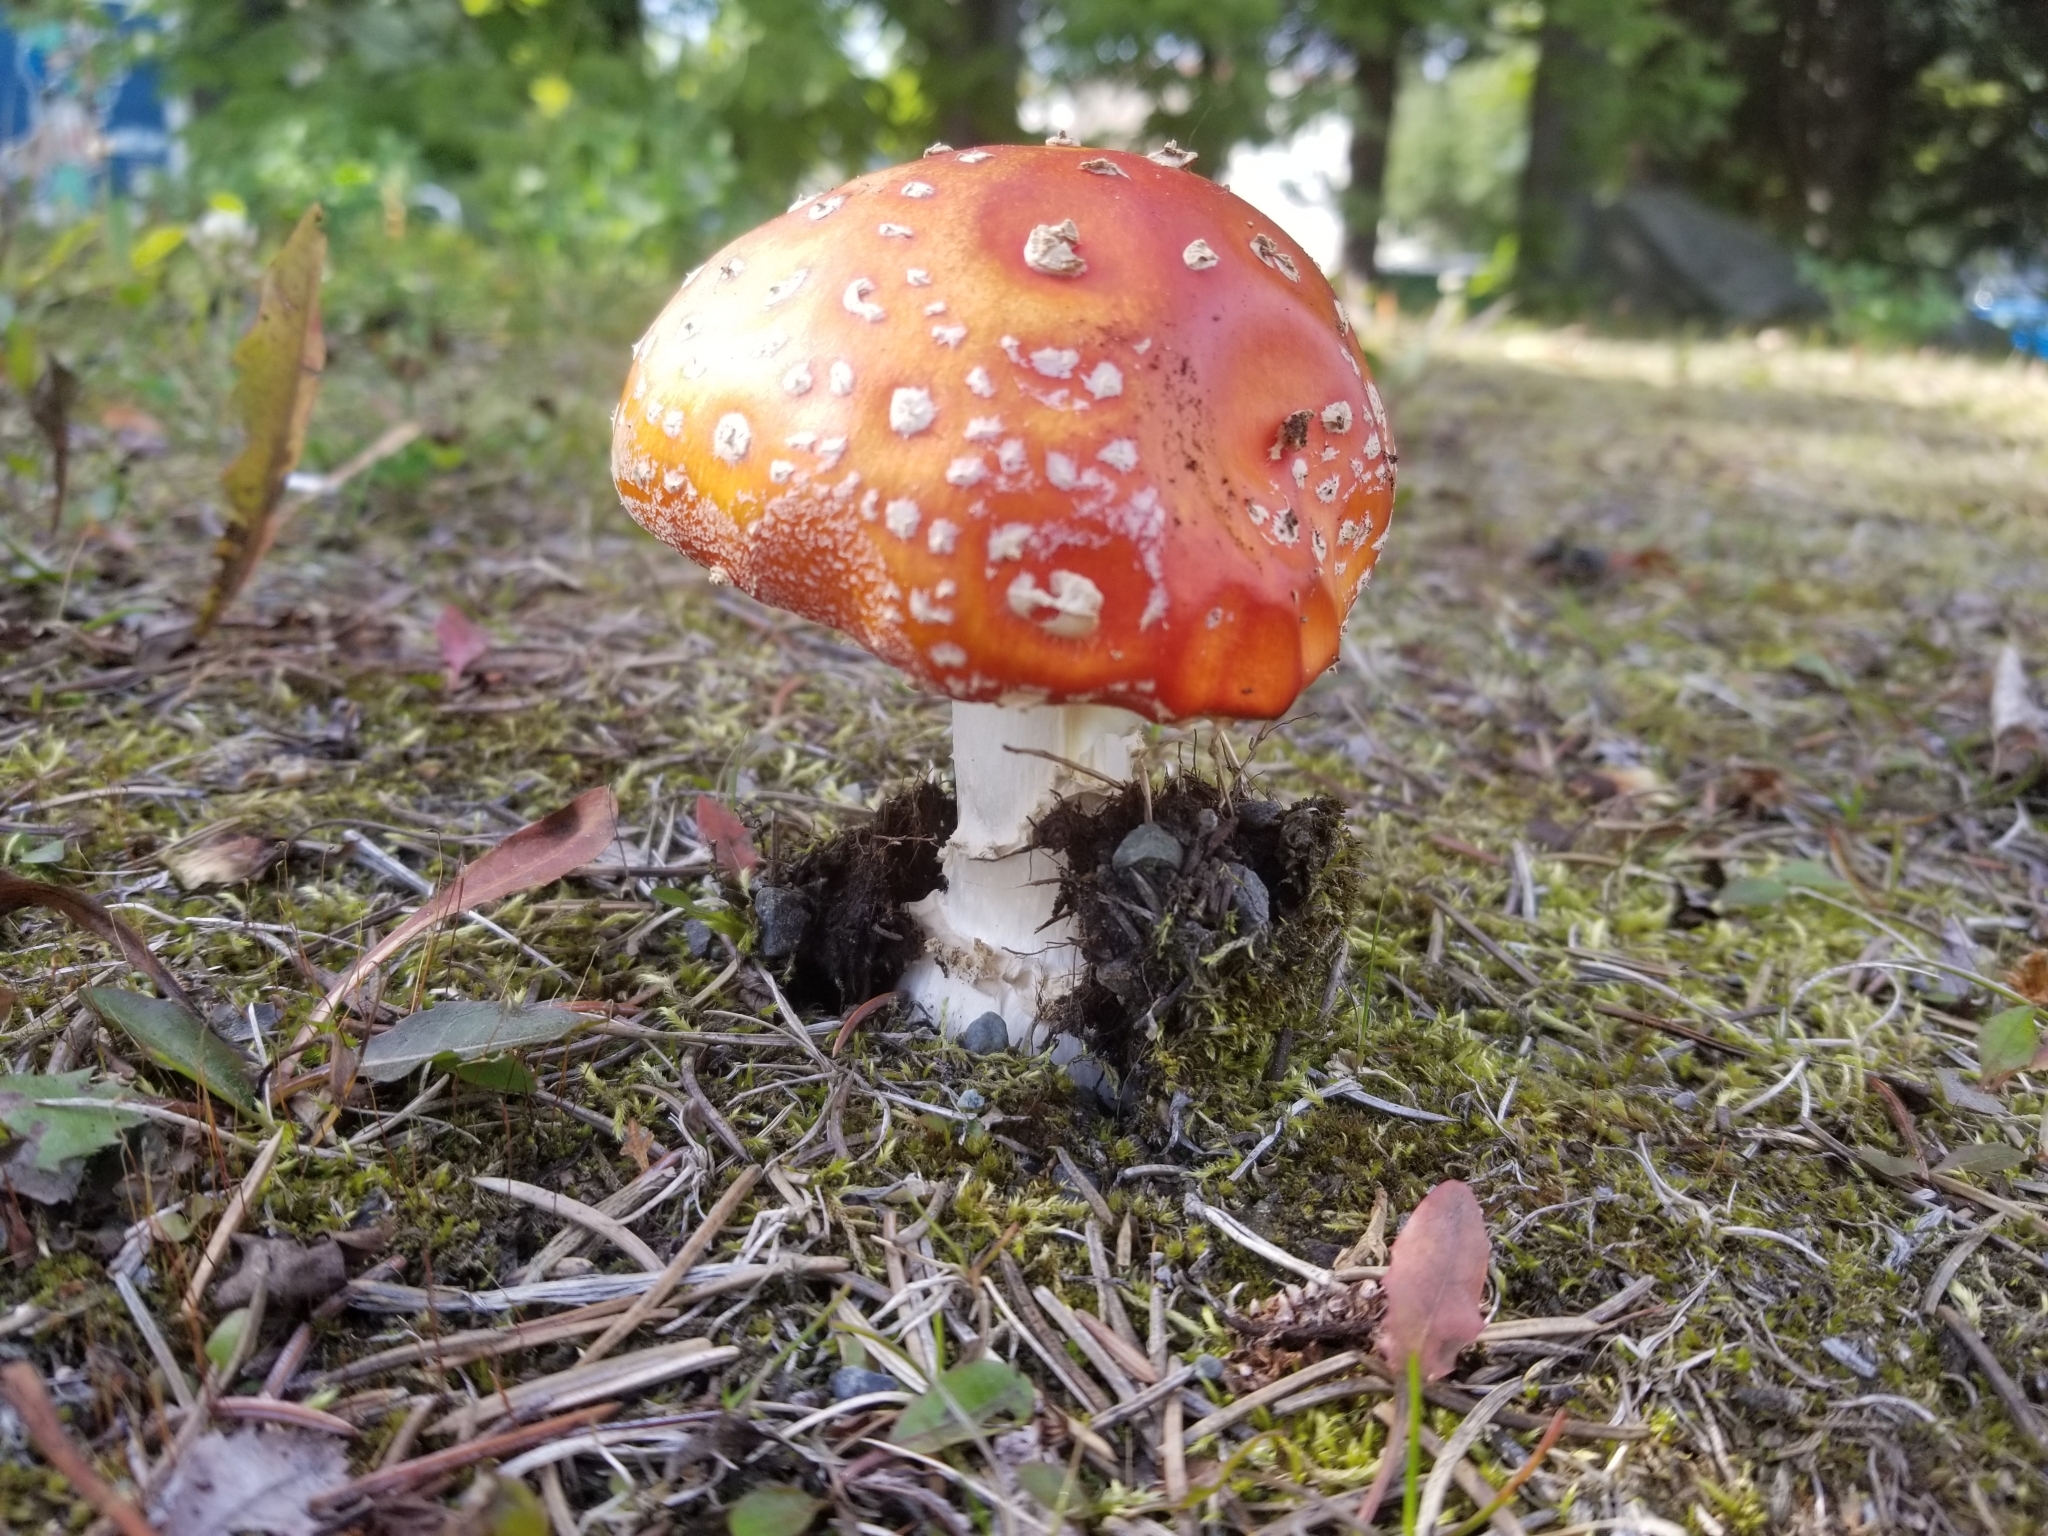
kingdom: Fungi
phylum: Basidiomycota
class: Agaricomycetes
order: Agaricales
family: Amanitaceae
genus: Amanita
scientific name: Amanita muscaria
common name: Fly agaric
